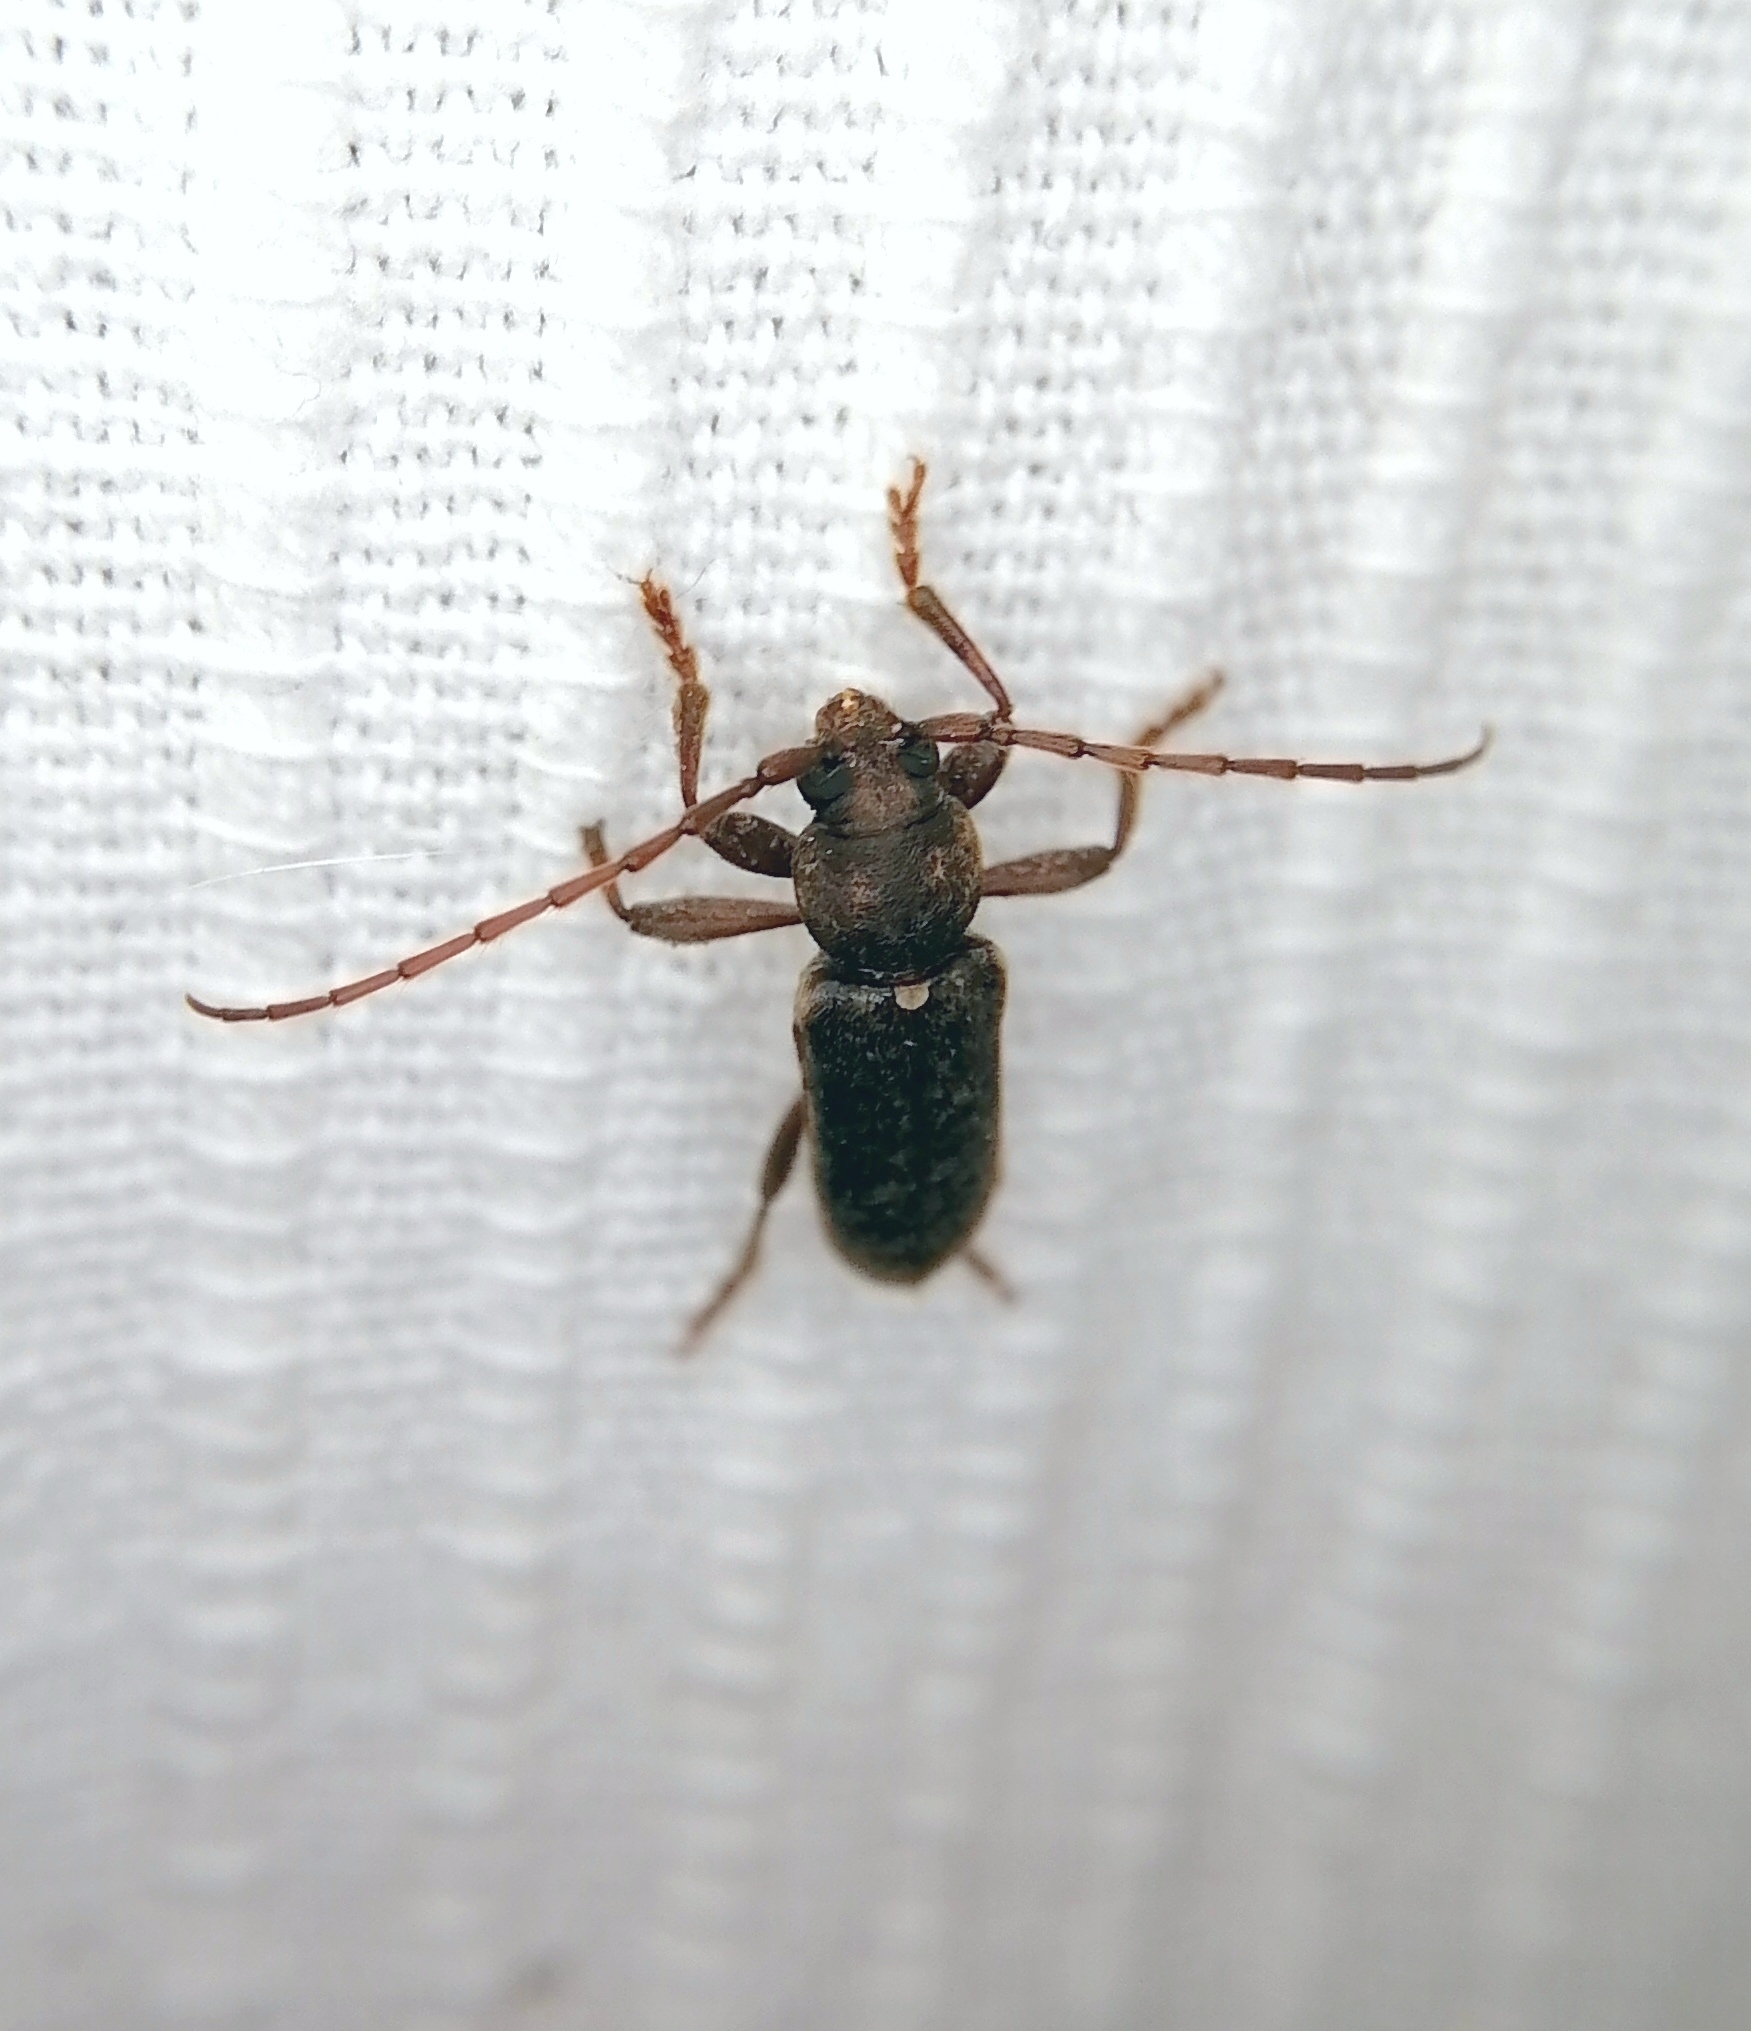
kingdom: Animalia
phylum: Arthropoda
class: Insecta
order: Coleoptera
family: Cerambycidae
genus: Trichoferus
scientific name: Trichoferus campestris
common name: Velvet long horned beetle
